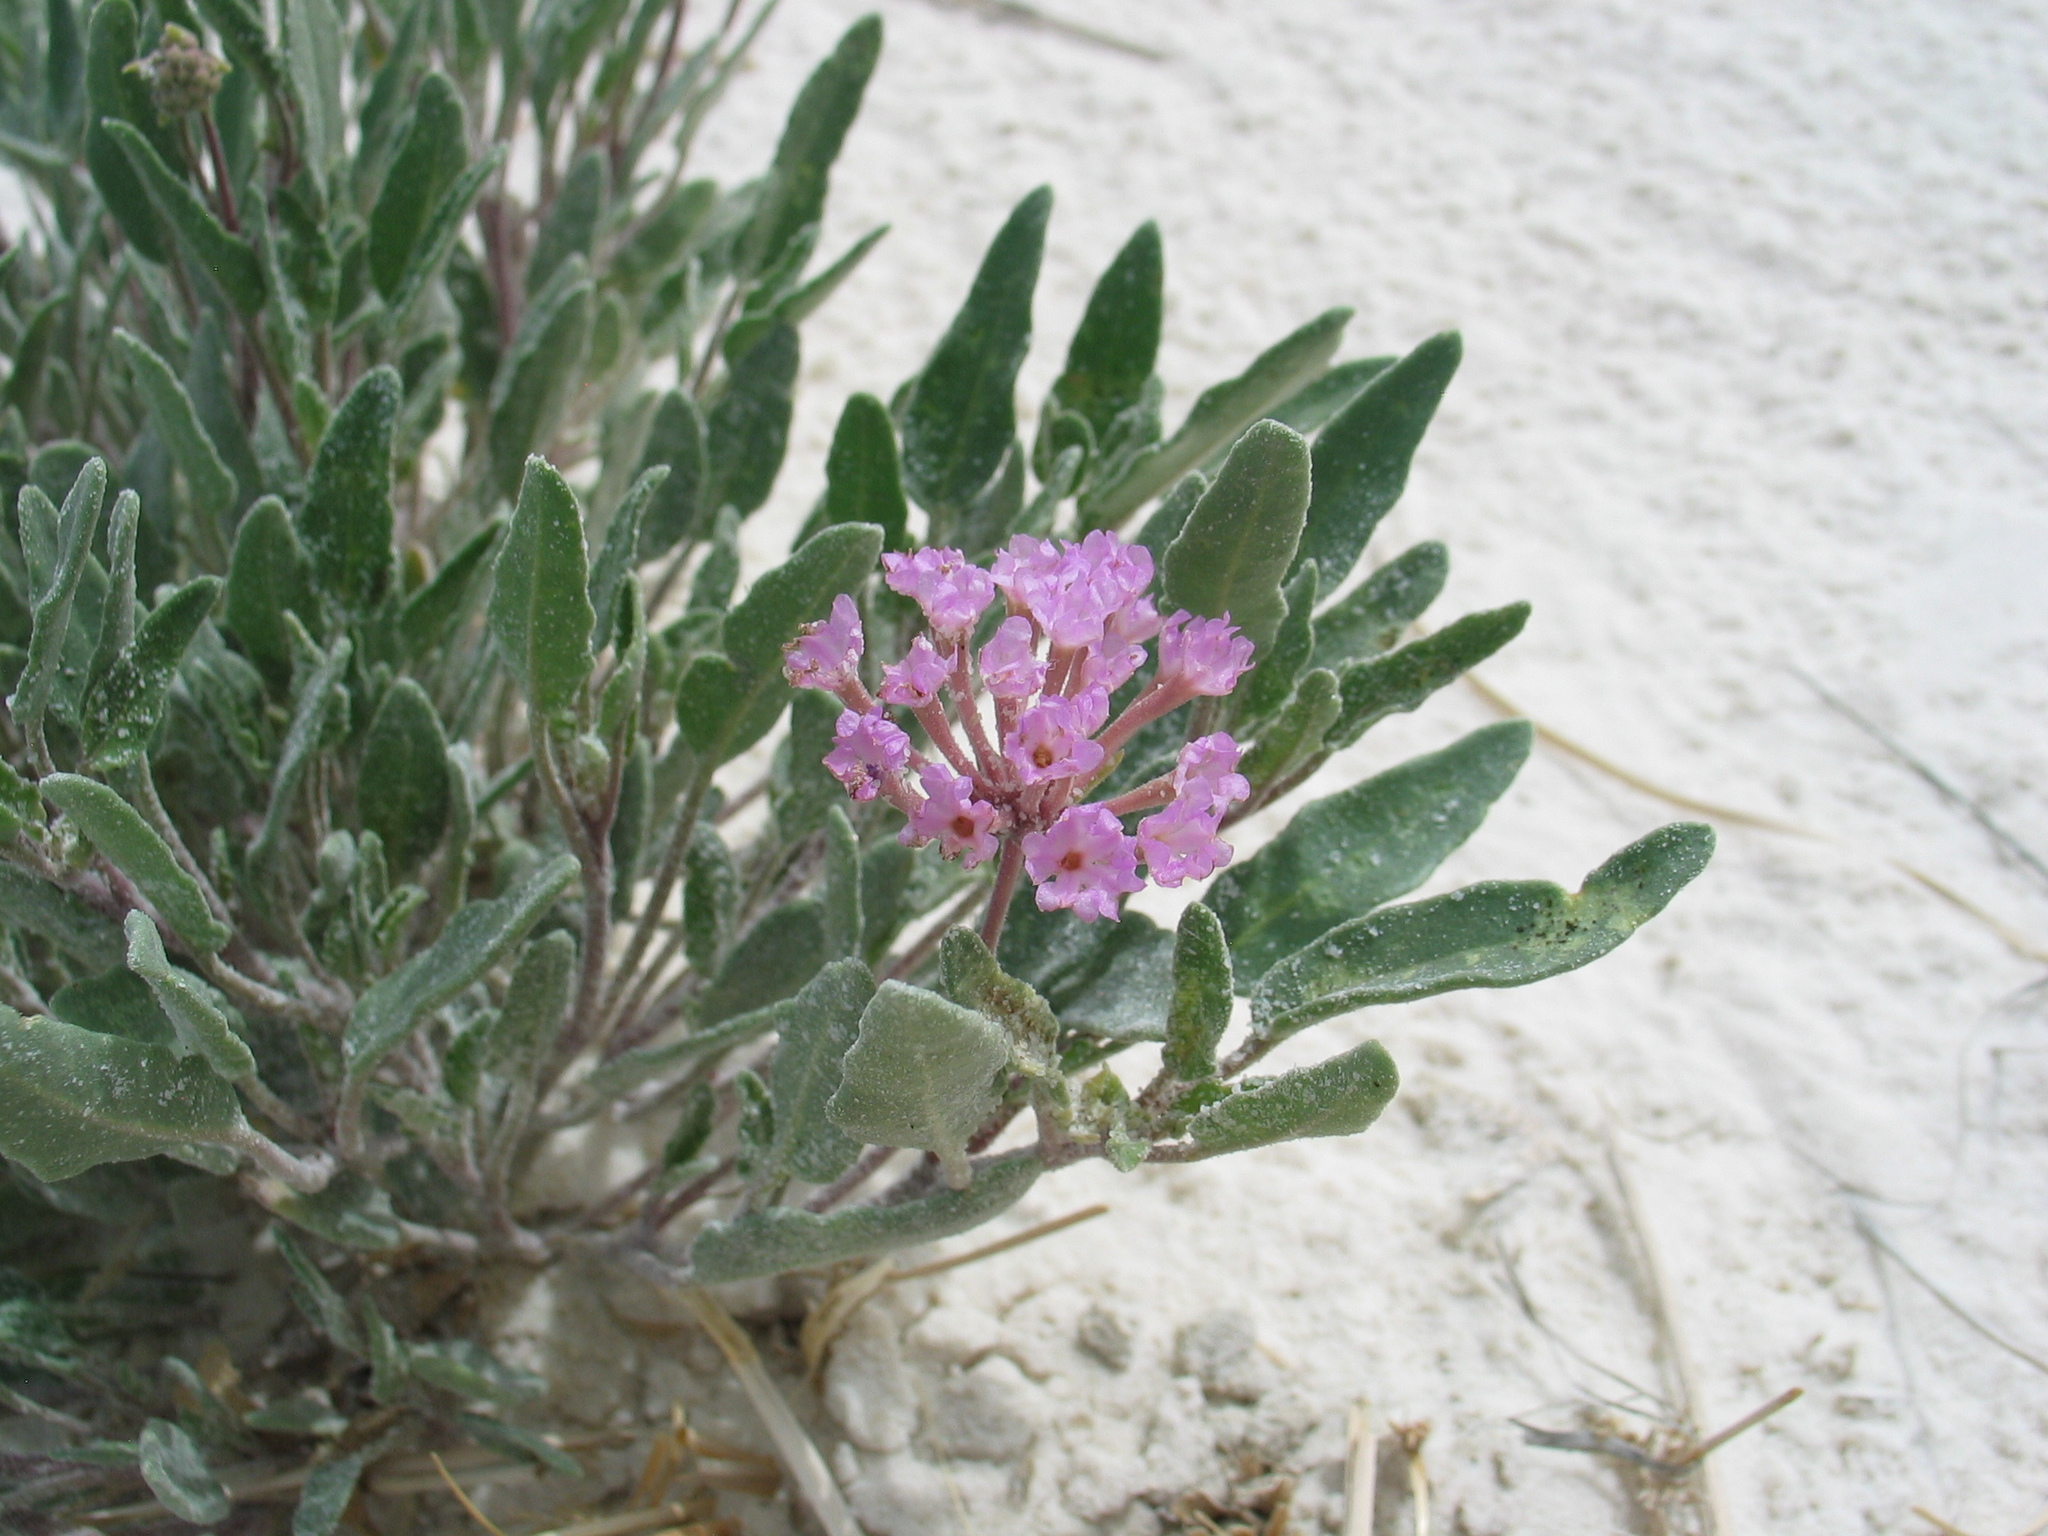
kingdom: Plantae
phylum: Tracheophyta
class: Magnoliopsida
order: Caryophyllales
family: Nyctaginaceae
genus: Abronia
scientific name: Abronia angustifolia
